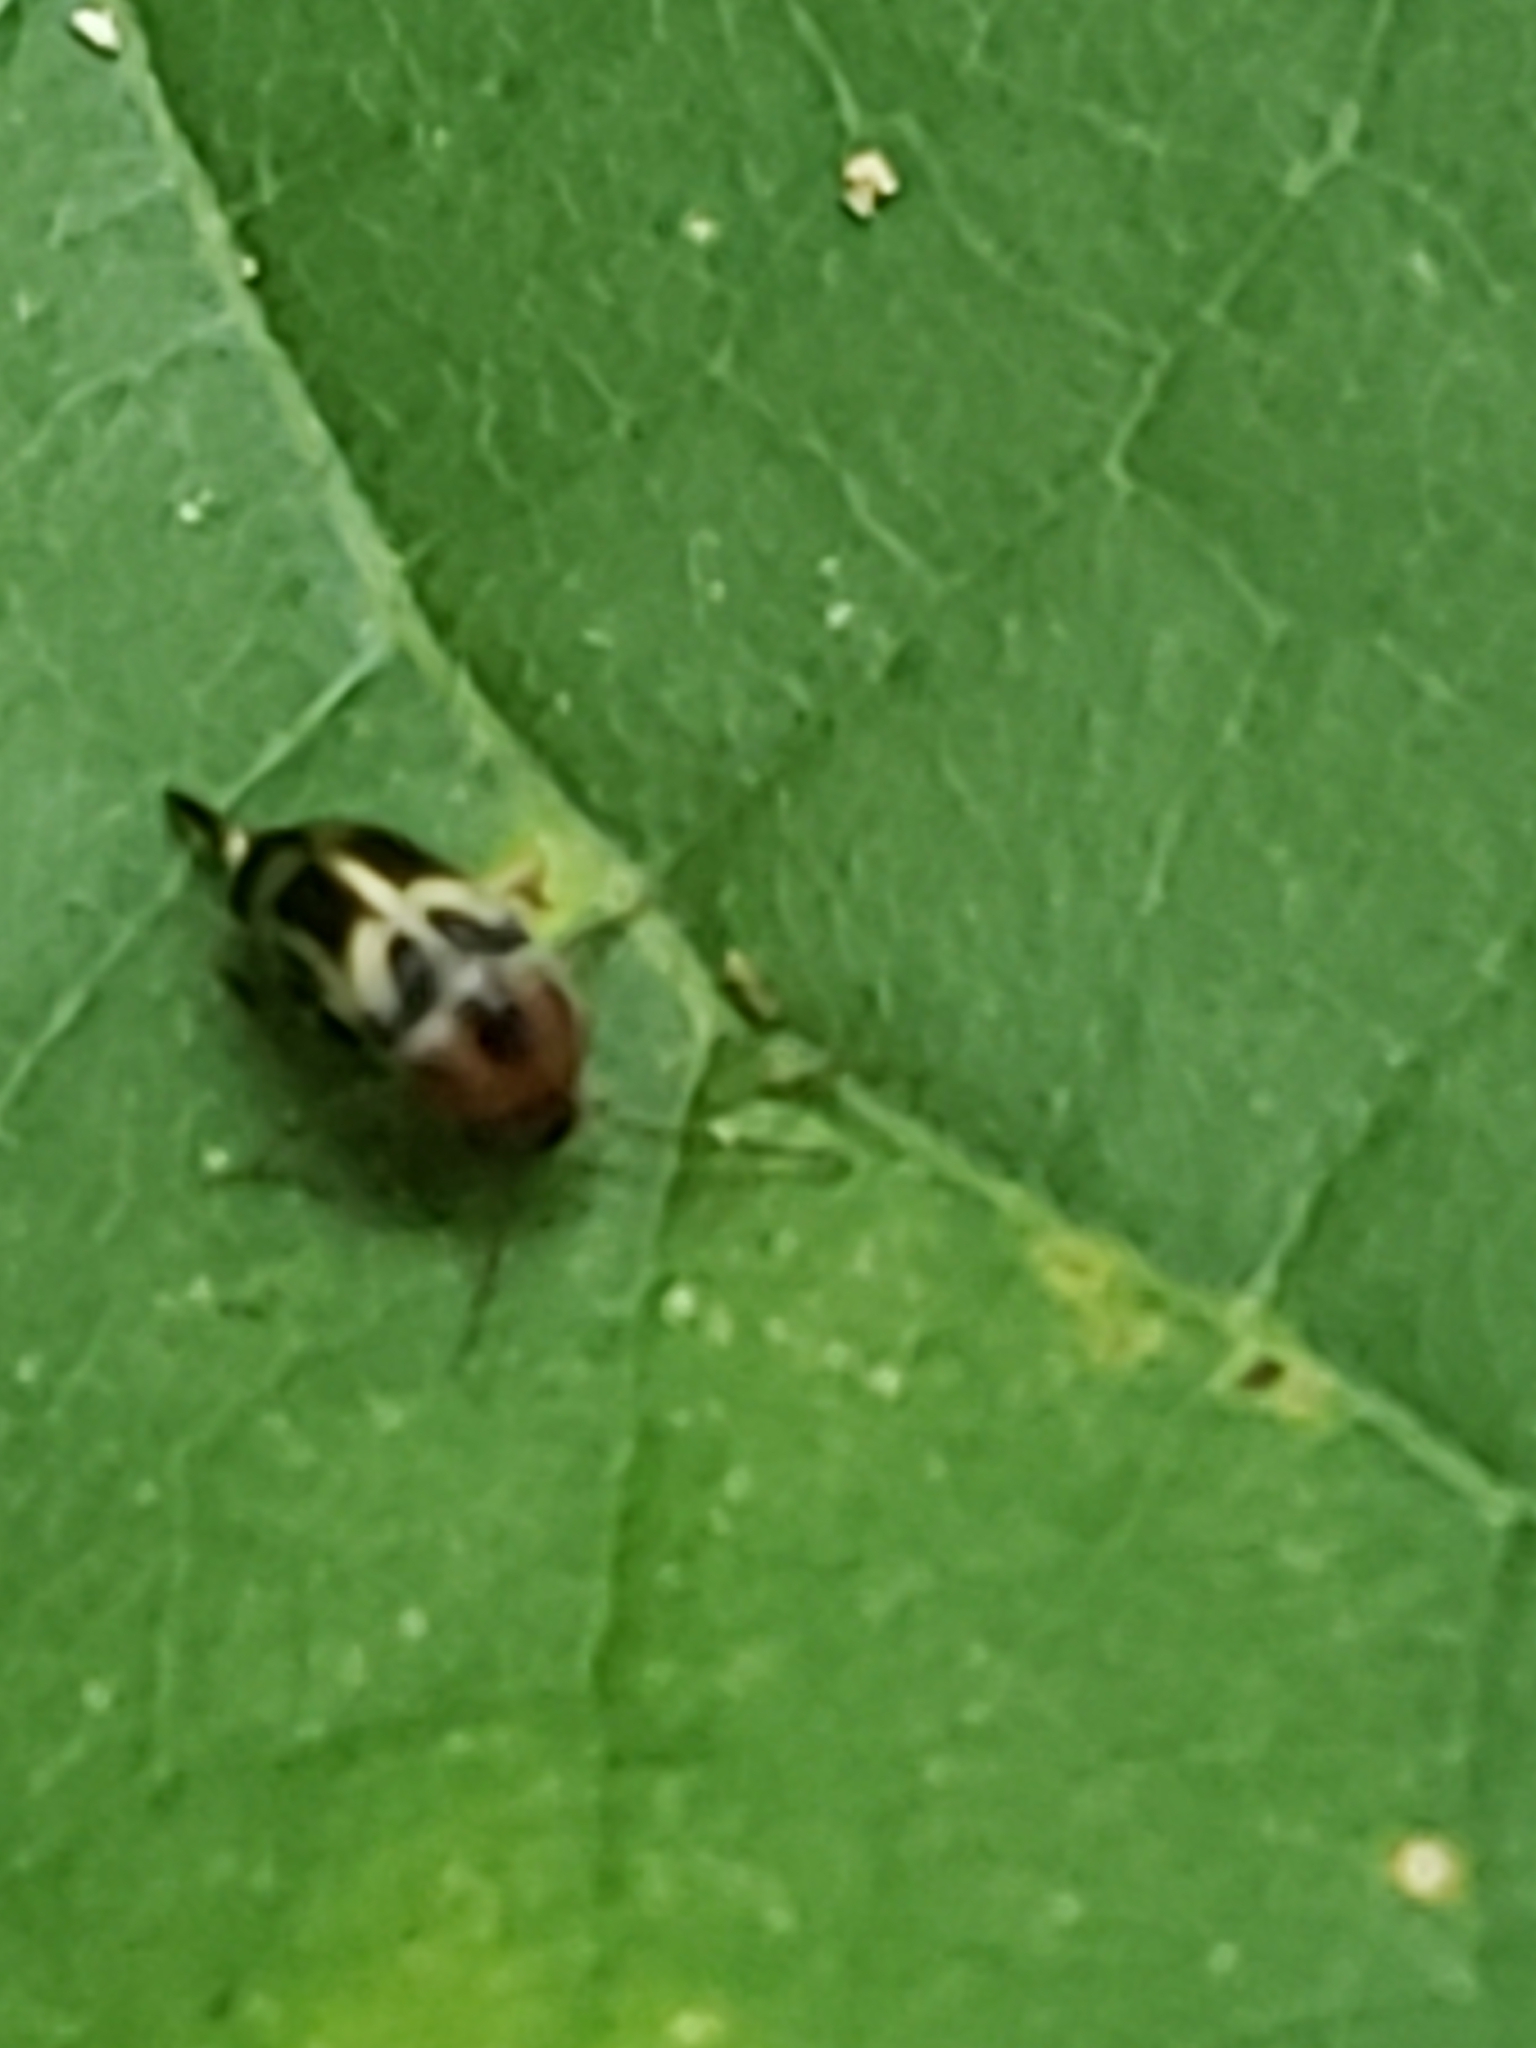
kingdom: Animalia
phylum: Arthropoda
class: Insecta
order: Coleoptera
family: Mordellidae
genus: Falsomordellistena
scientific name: Falsomordellistena hebraica
